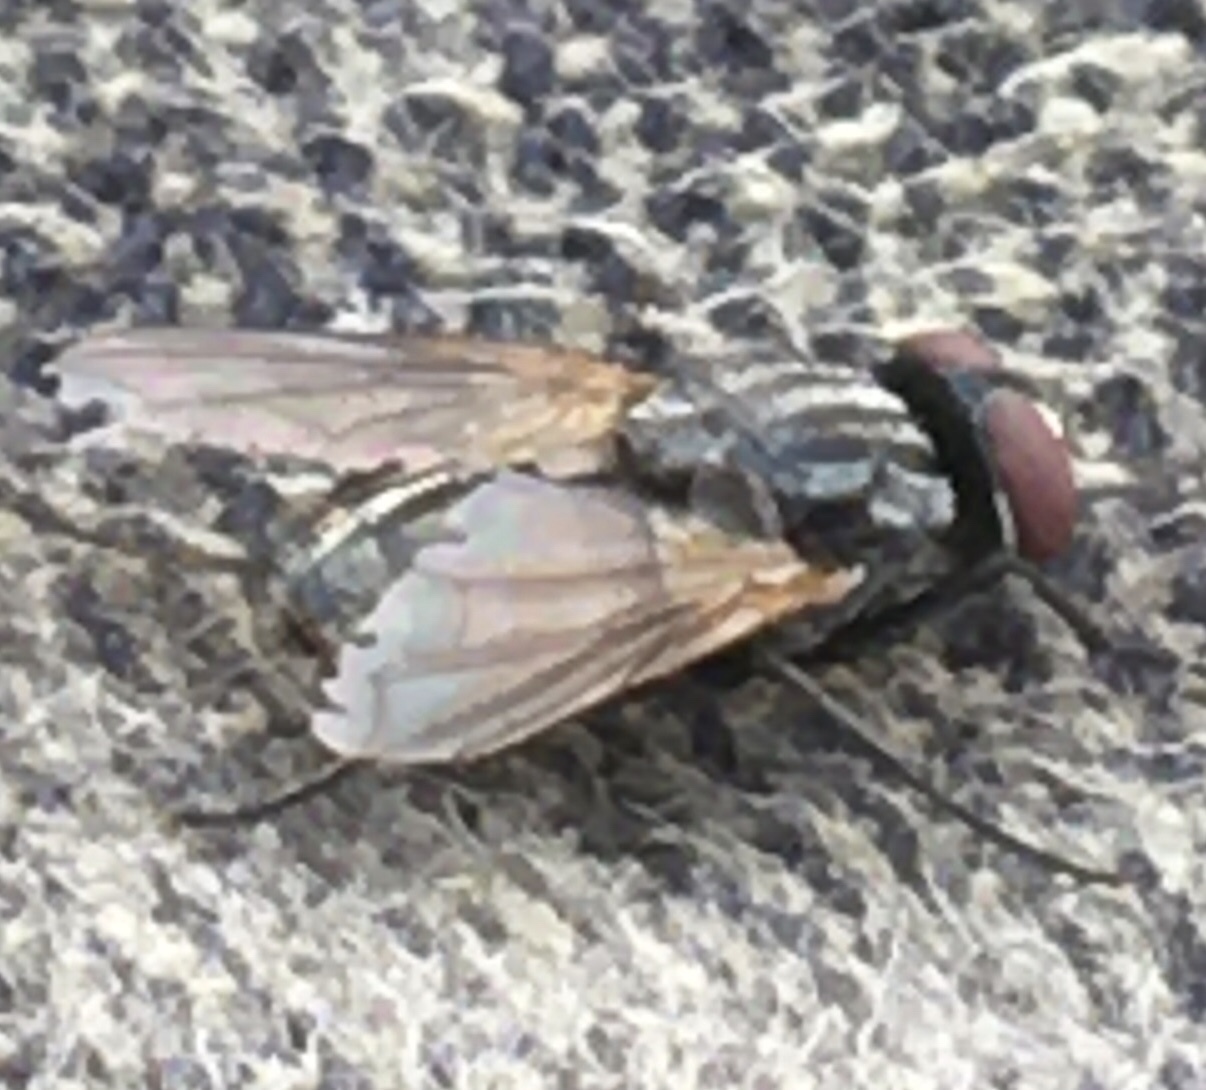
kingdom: Animalia
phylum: Arthropoda
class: Insecta
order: Diptera
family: Muscidae
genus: Musca
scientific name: Musca domestica
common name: House fly
